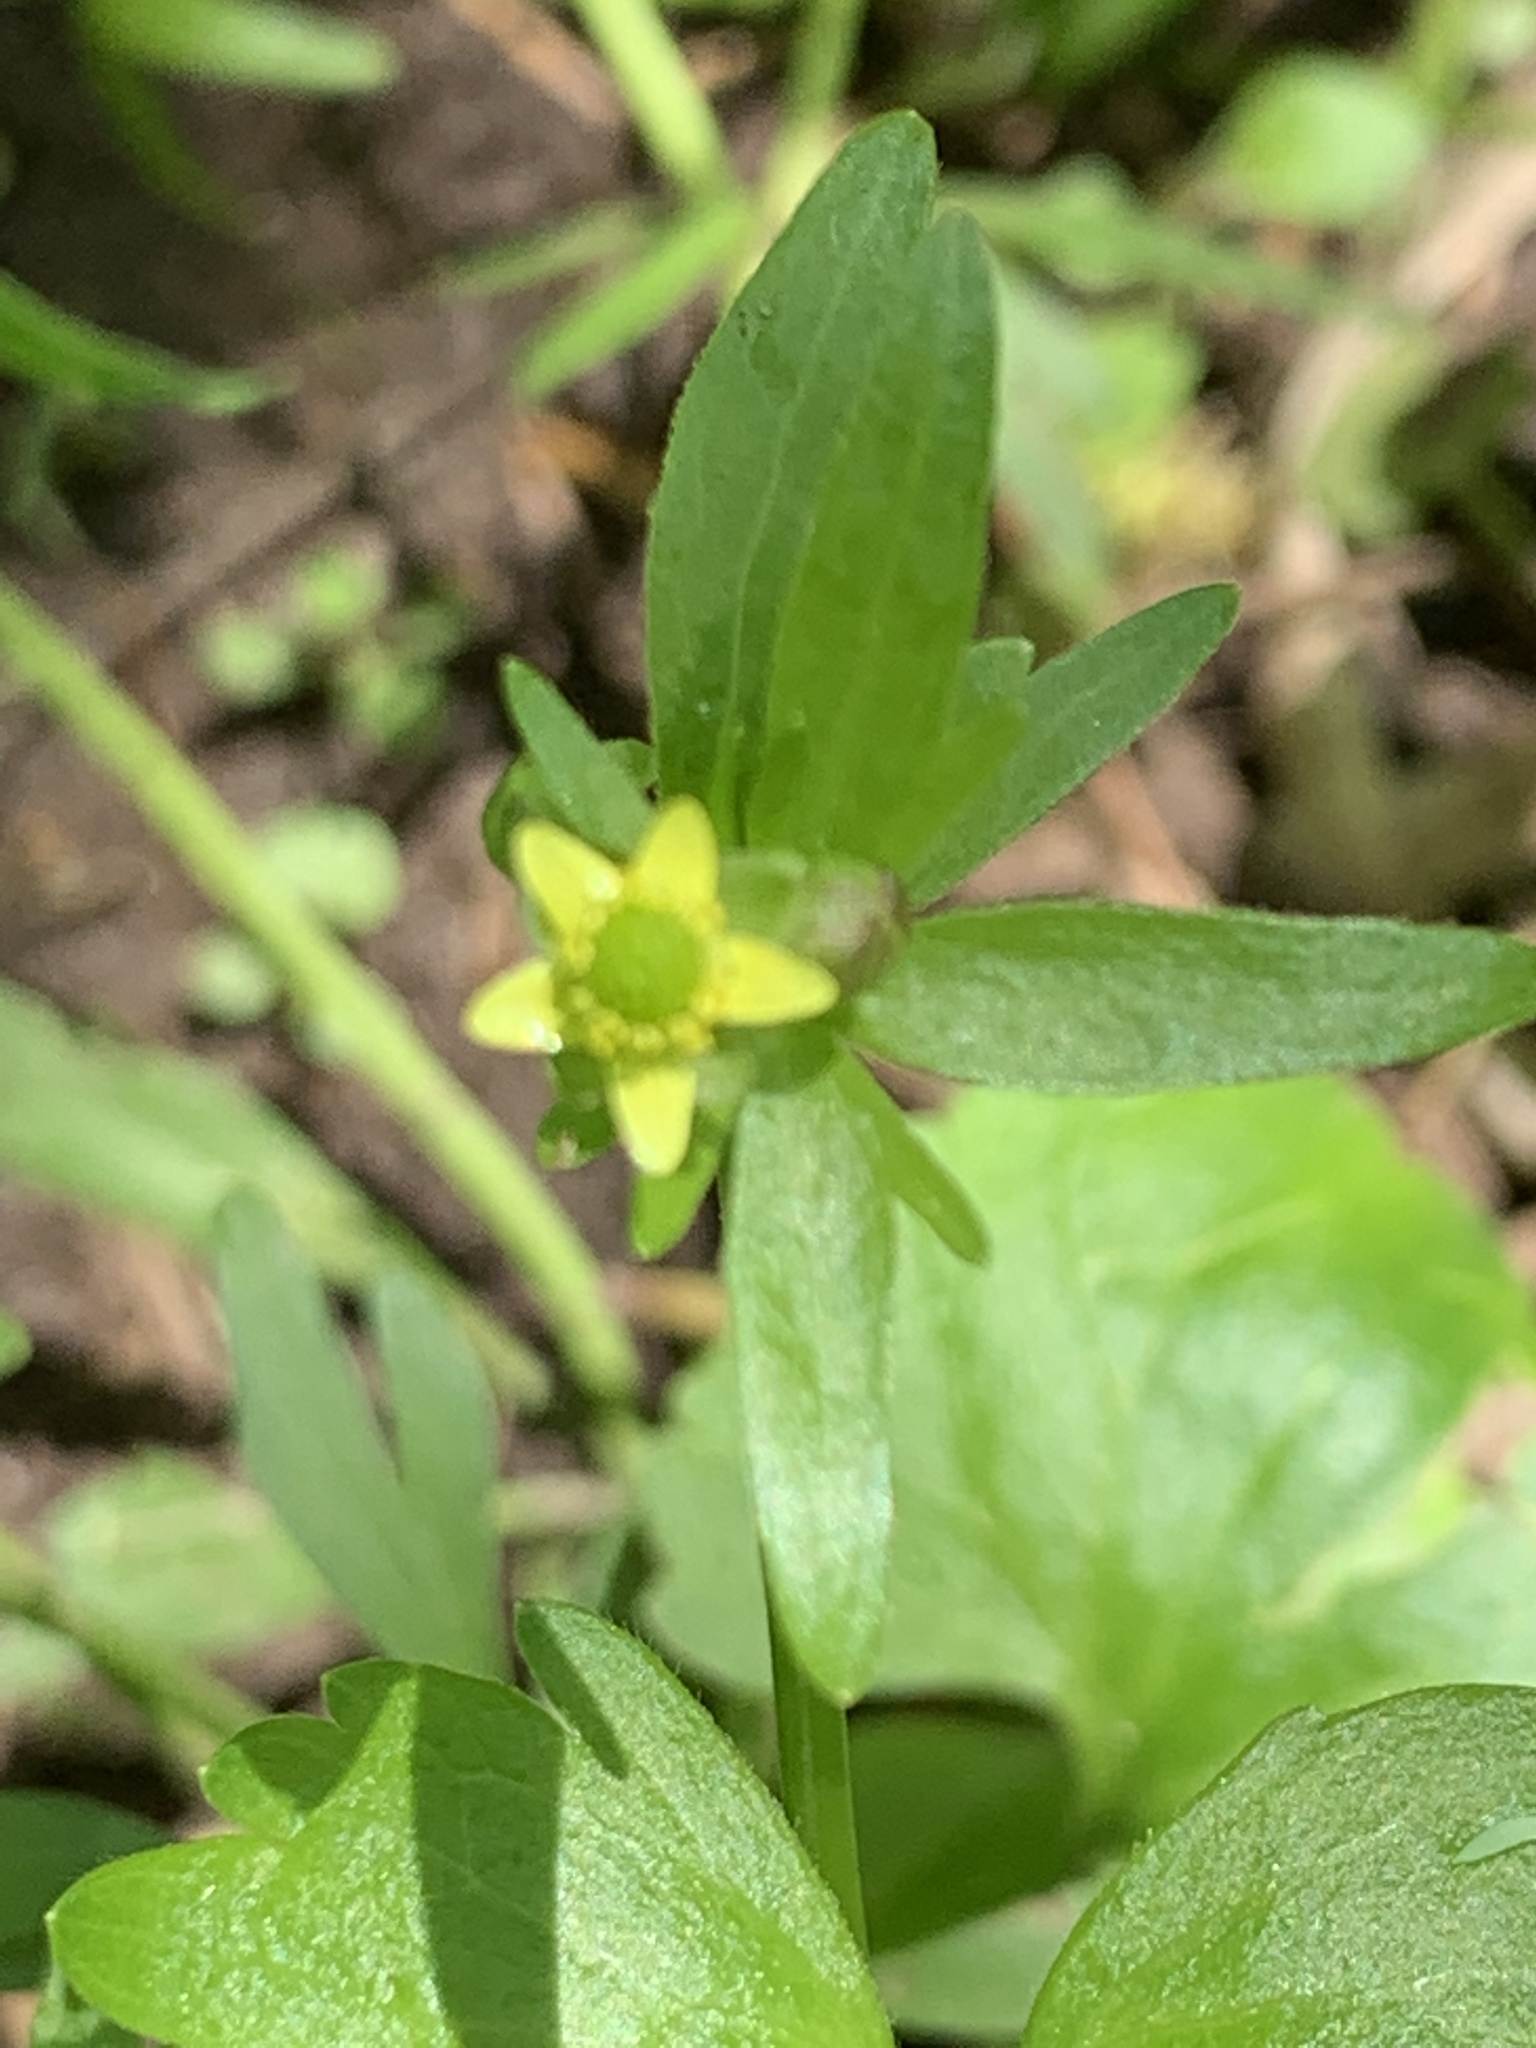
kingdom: Plantae
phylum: Tracheophyta
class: Magnoliopsida
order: Ranunculales
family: Ranunculaceae
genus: Ranunculus
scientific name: Ranunculus abortivus
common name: Early wood buttercup
